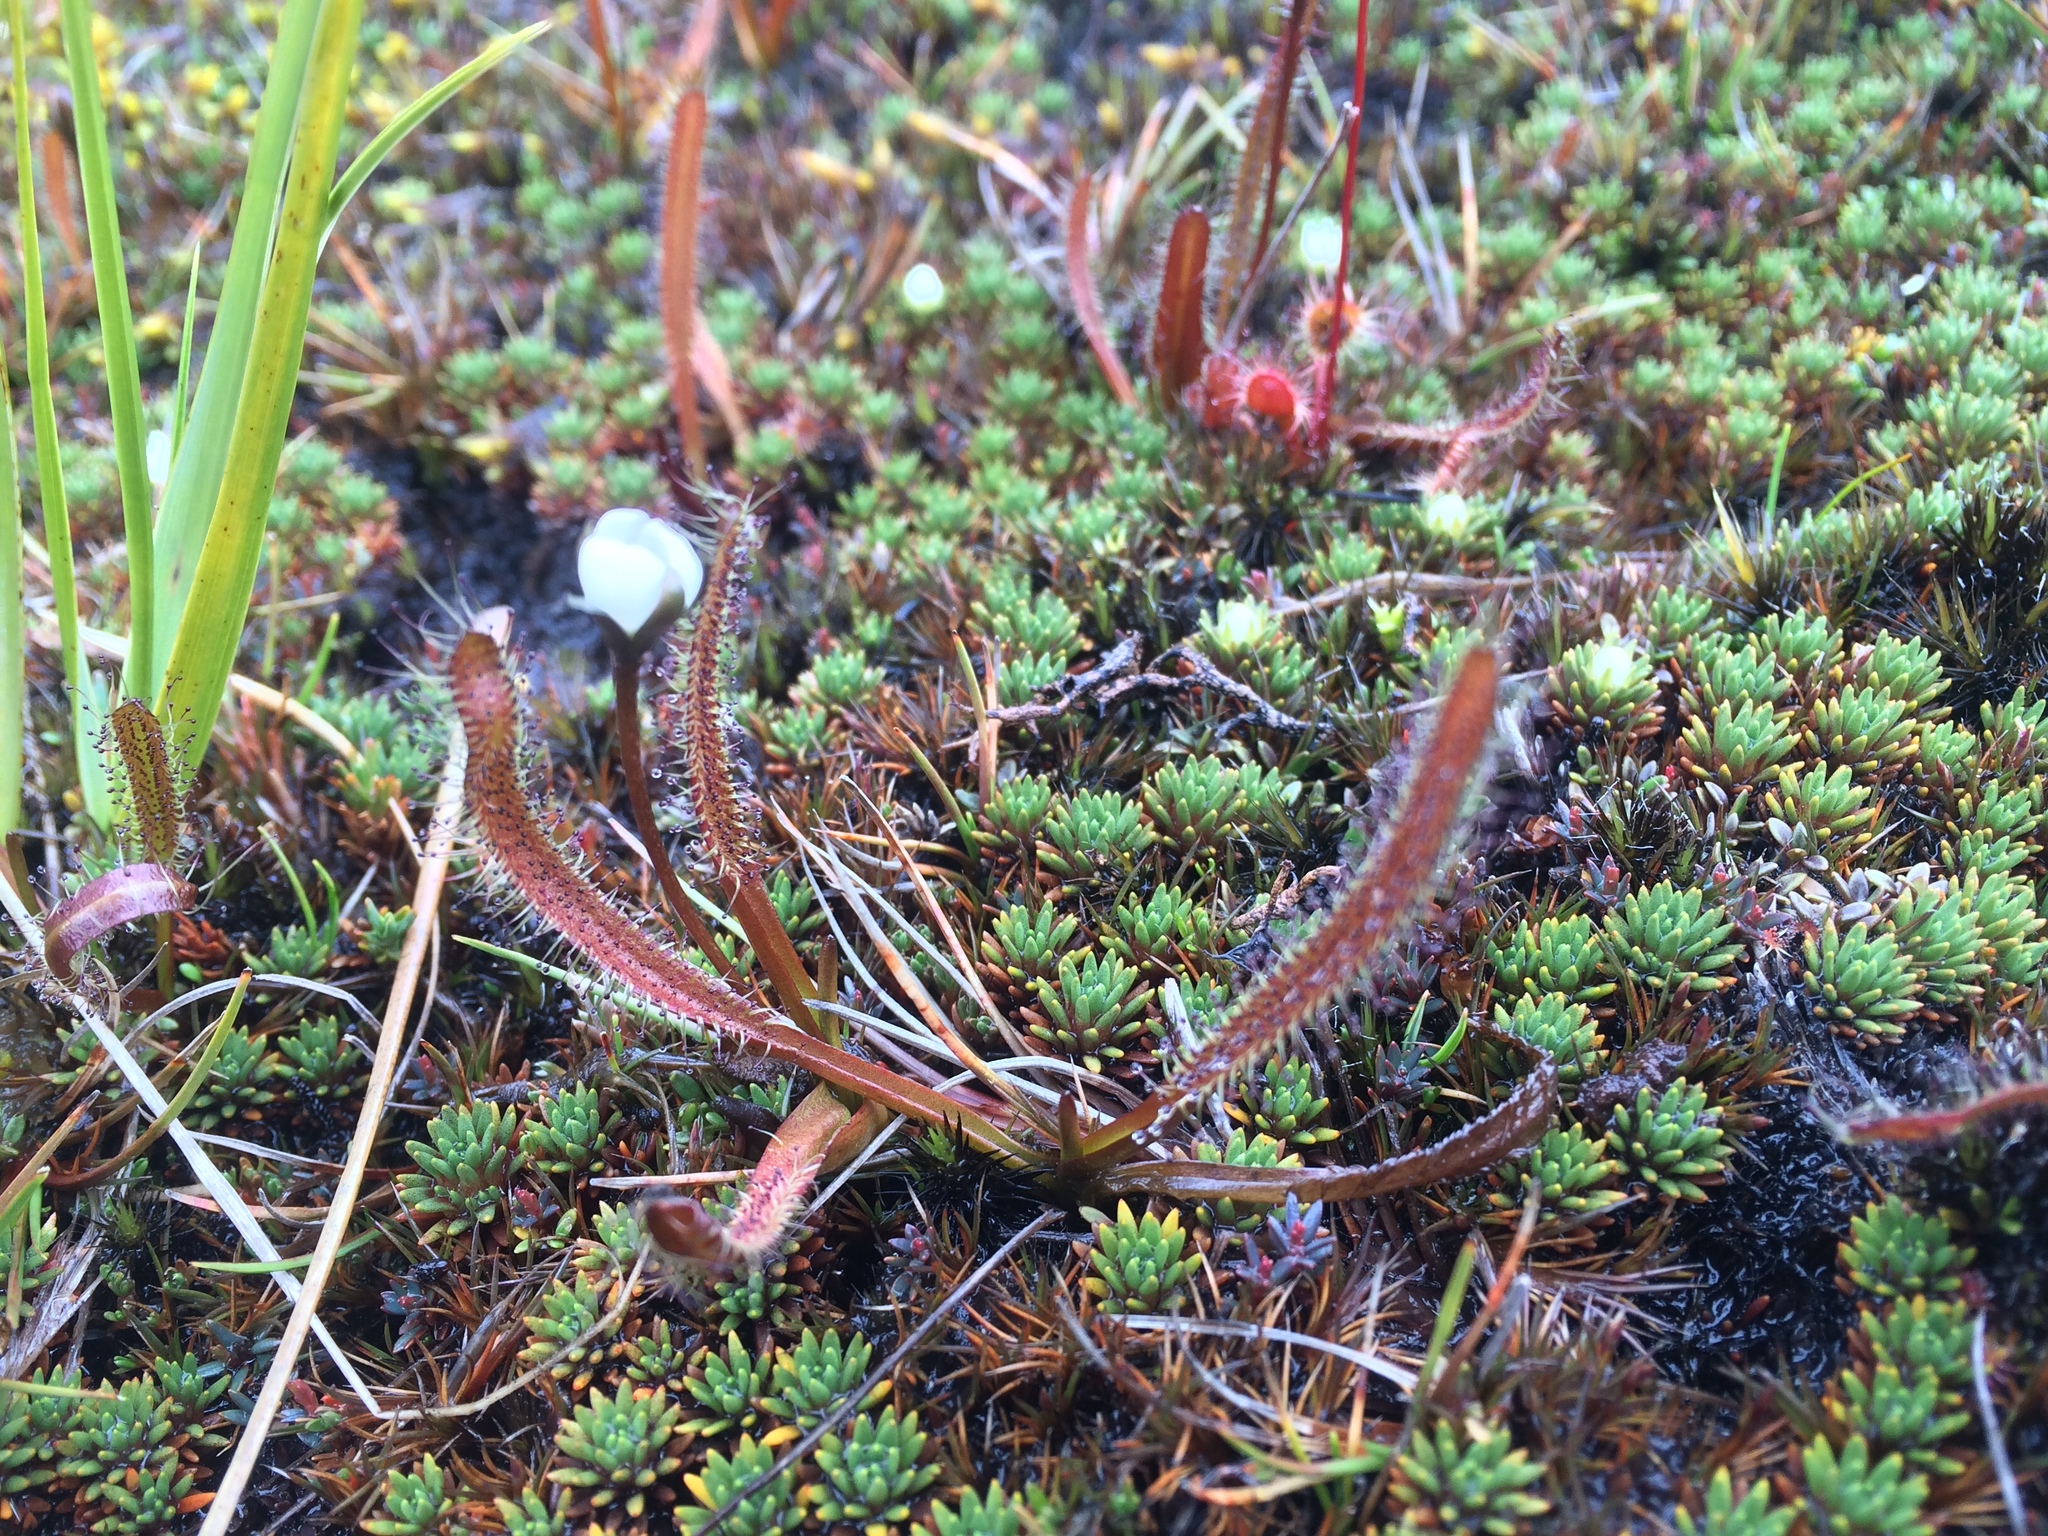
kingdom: Plantae
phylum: Tracheophyta
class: Magnoliopsida
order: Caryophyllales
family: Droseraceae
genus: Drosera
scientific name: Drosera arcturi
